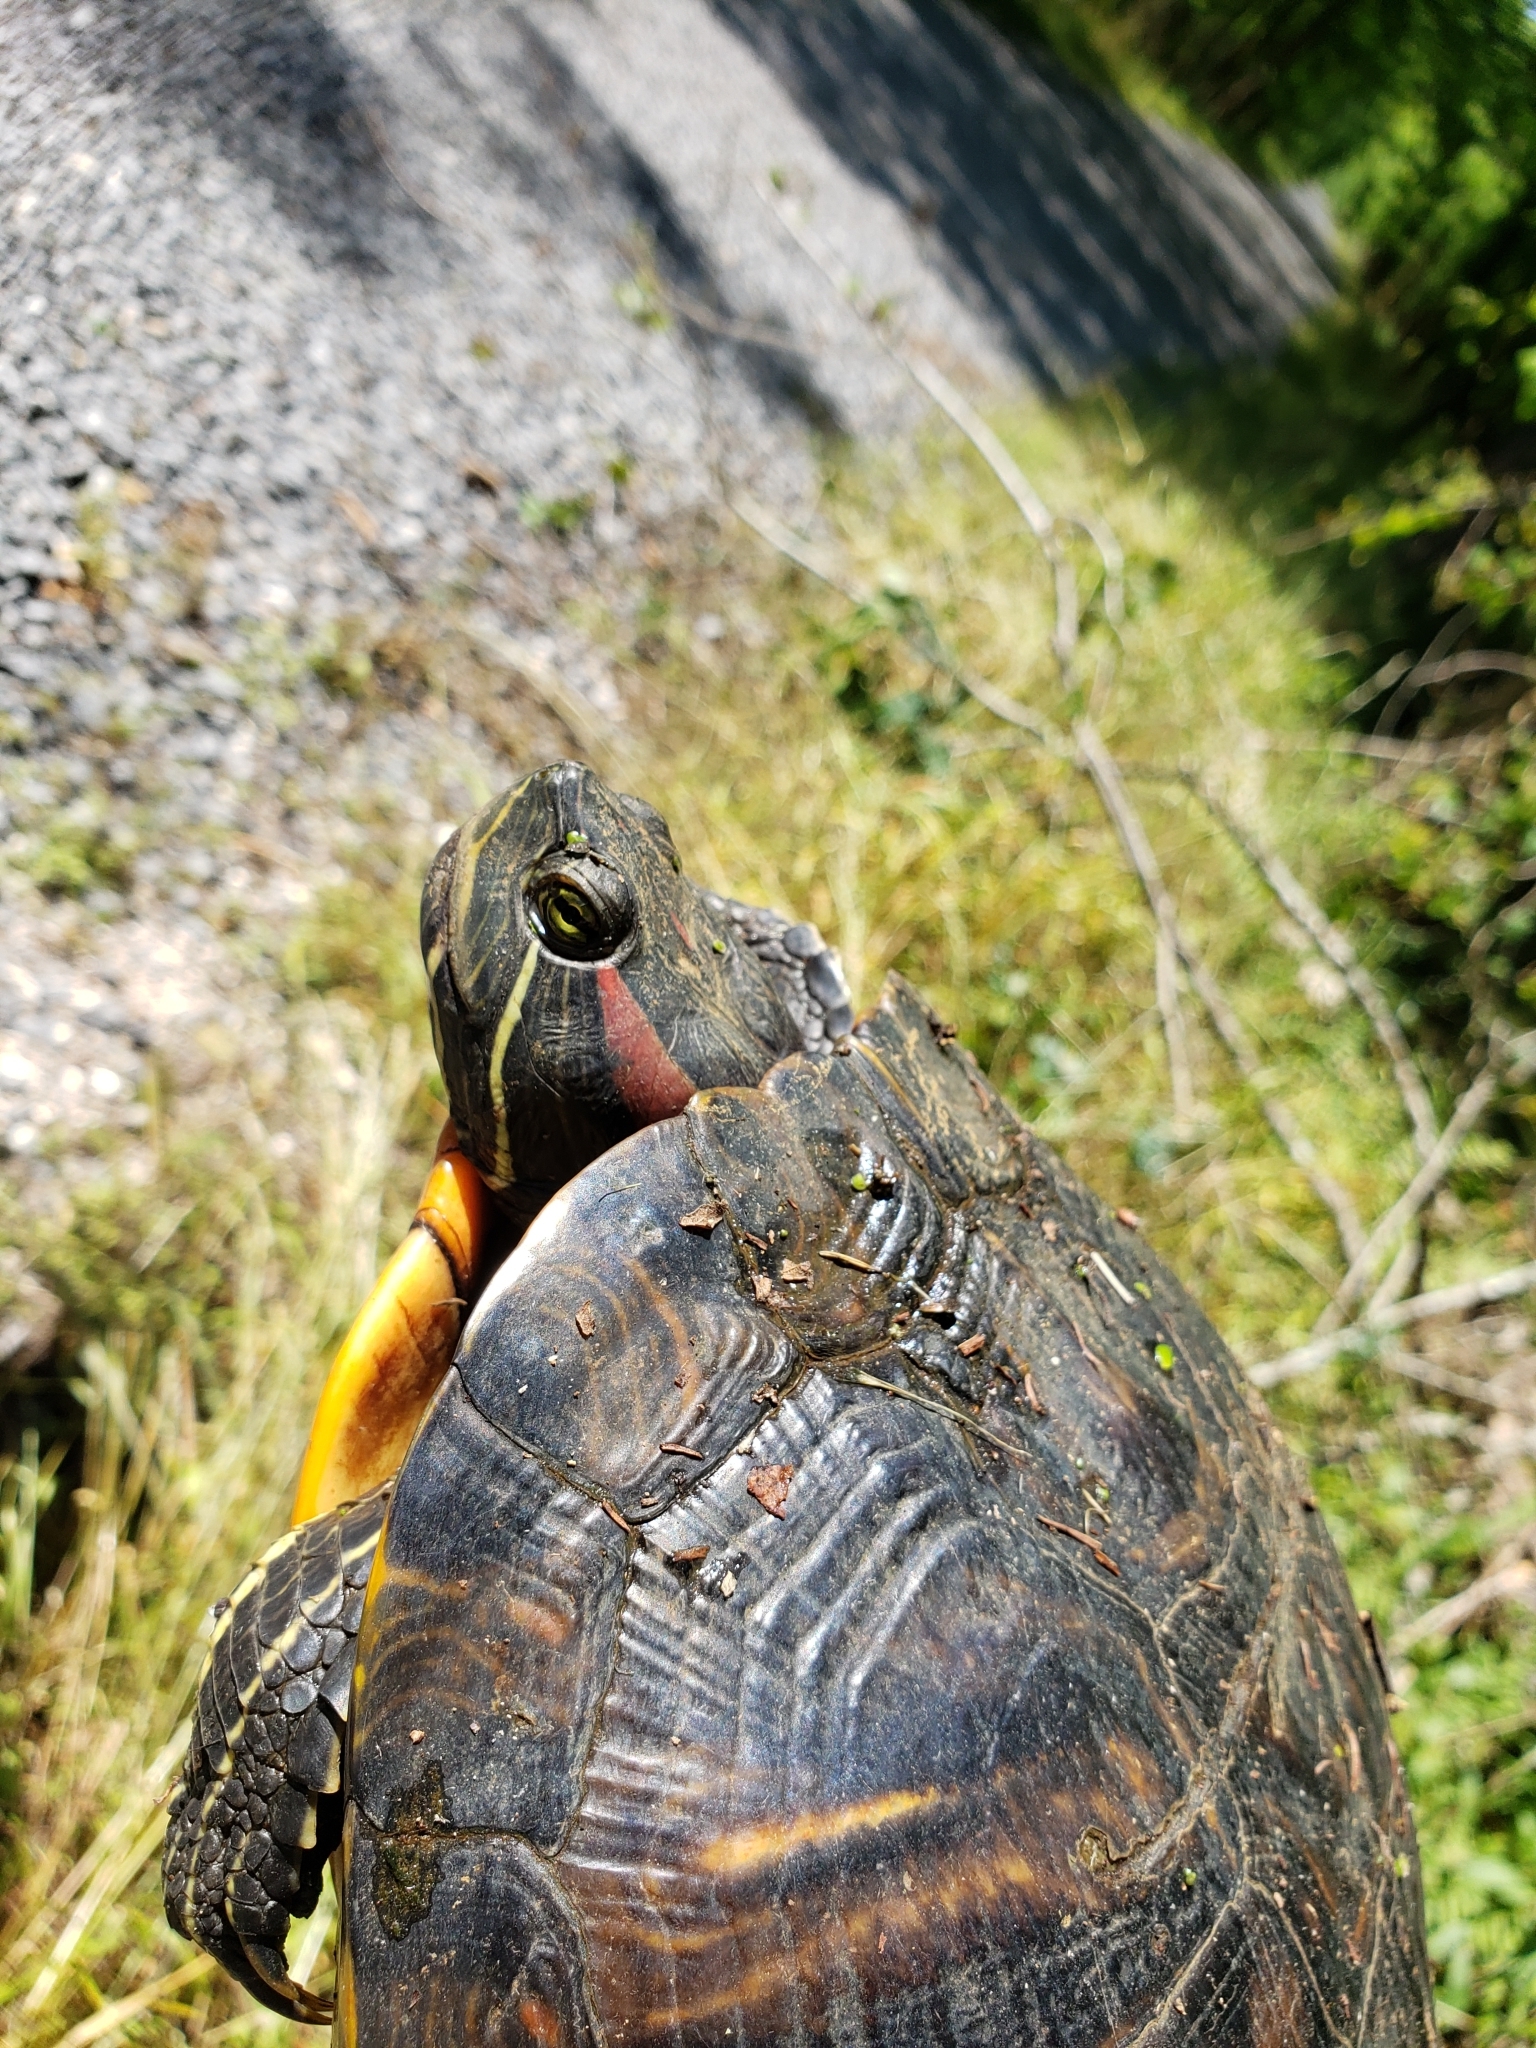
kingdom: Animalia
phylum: Chordata
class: Testudines
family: Emydidae
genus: Trachemys
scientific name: Trachemys scripta
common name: Slider
